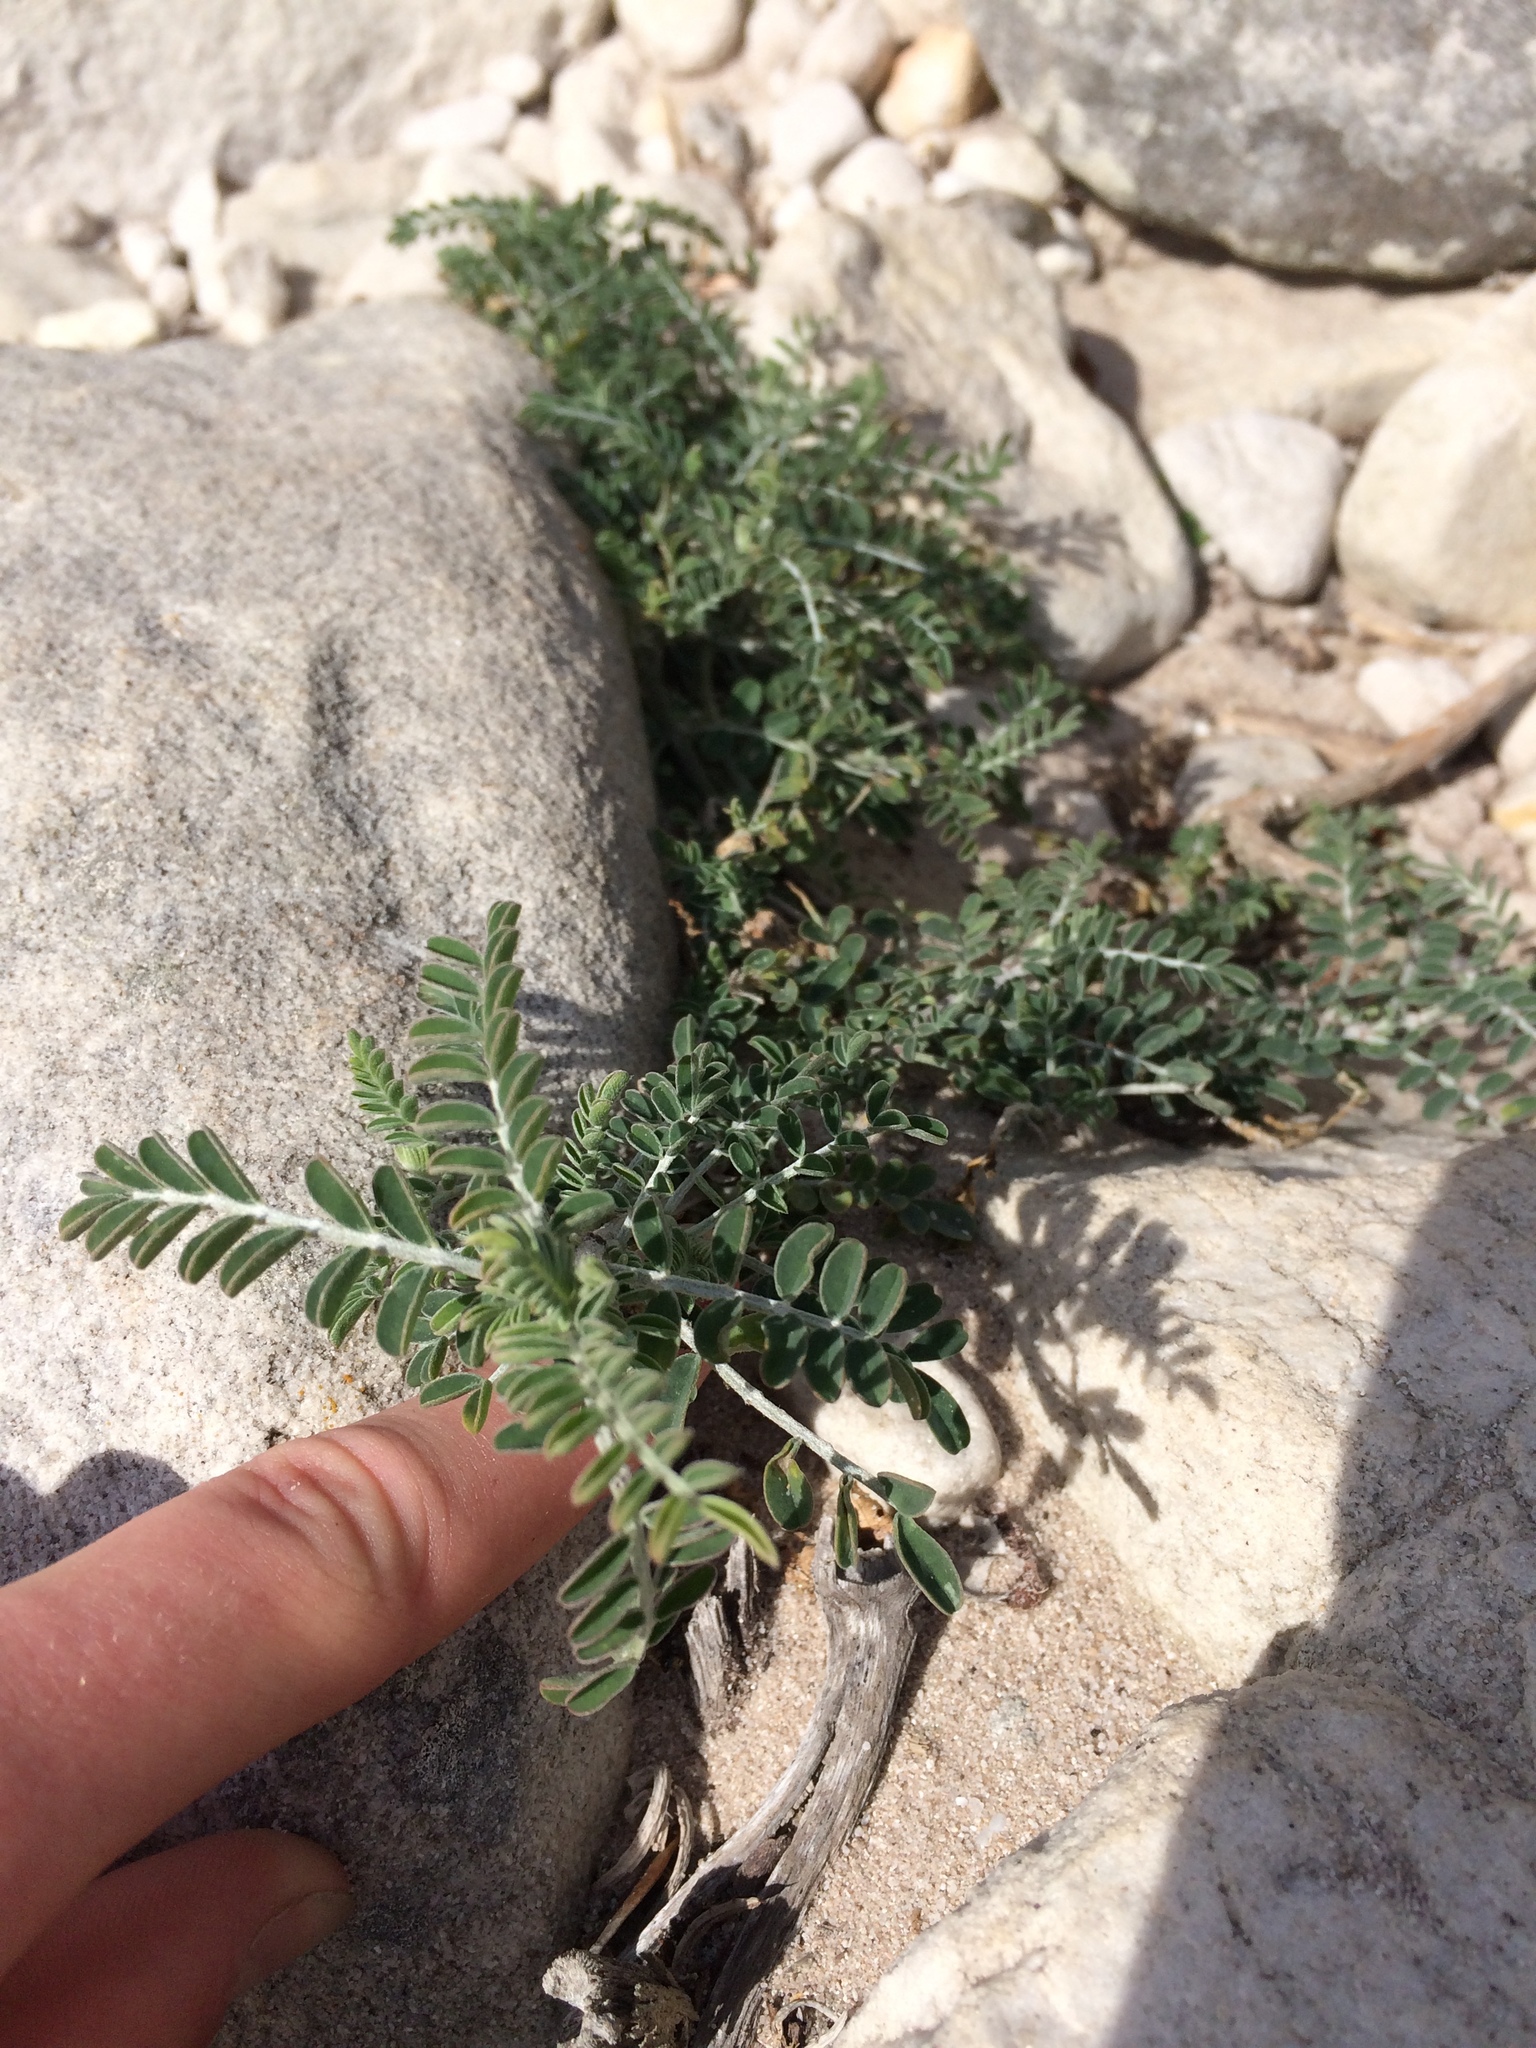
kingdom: Plantae
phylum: Tracheophyta
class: Magnoliopsida
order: Fabales
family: Fabaceae
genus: Lessertia
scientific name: Lessertia frutescens
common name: Balloon-pea
